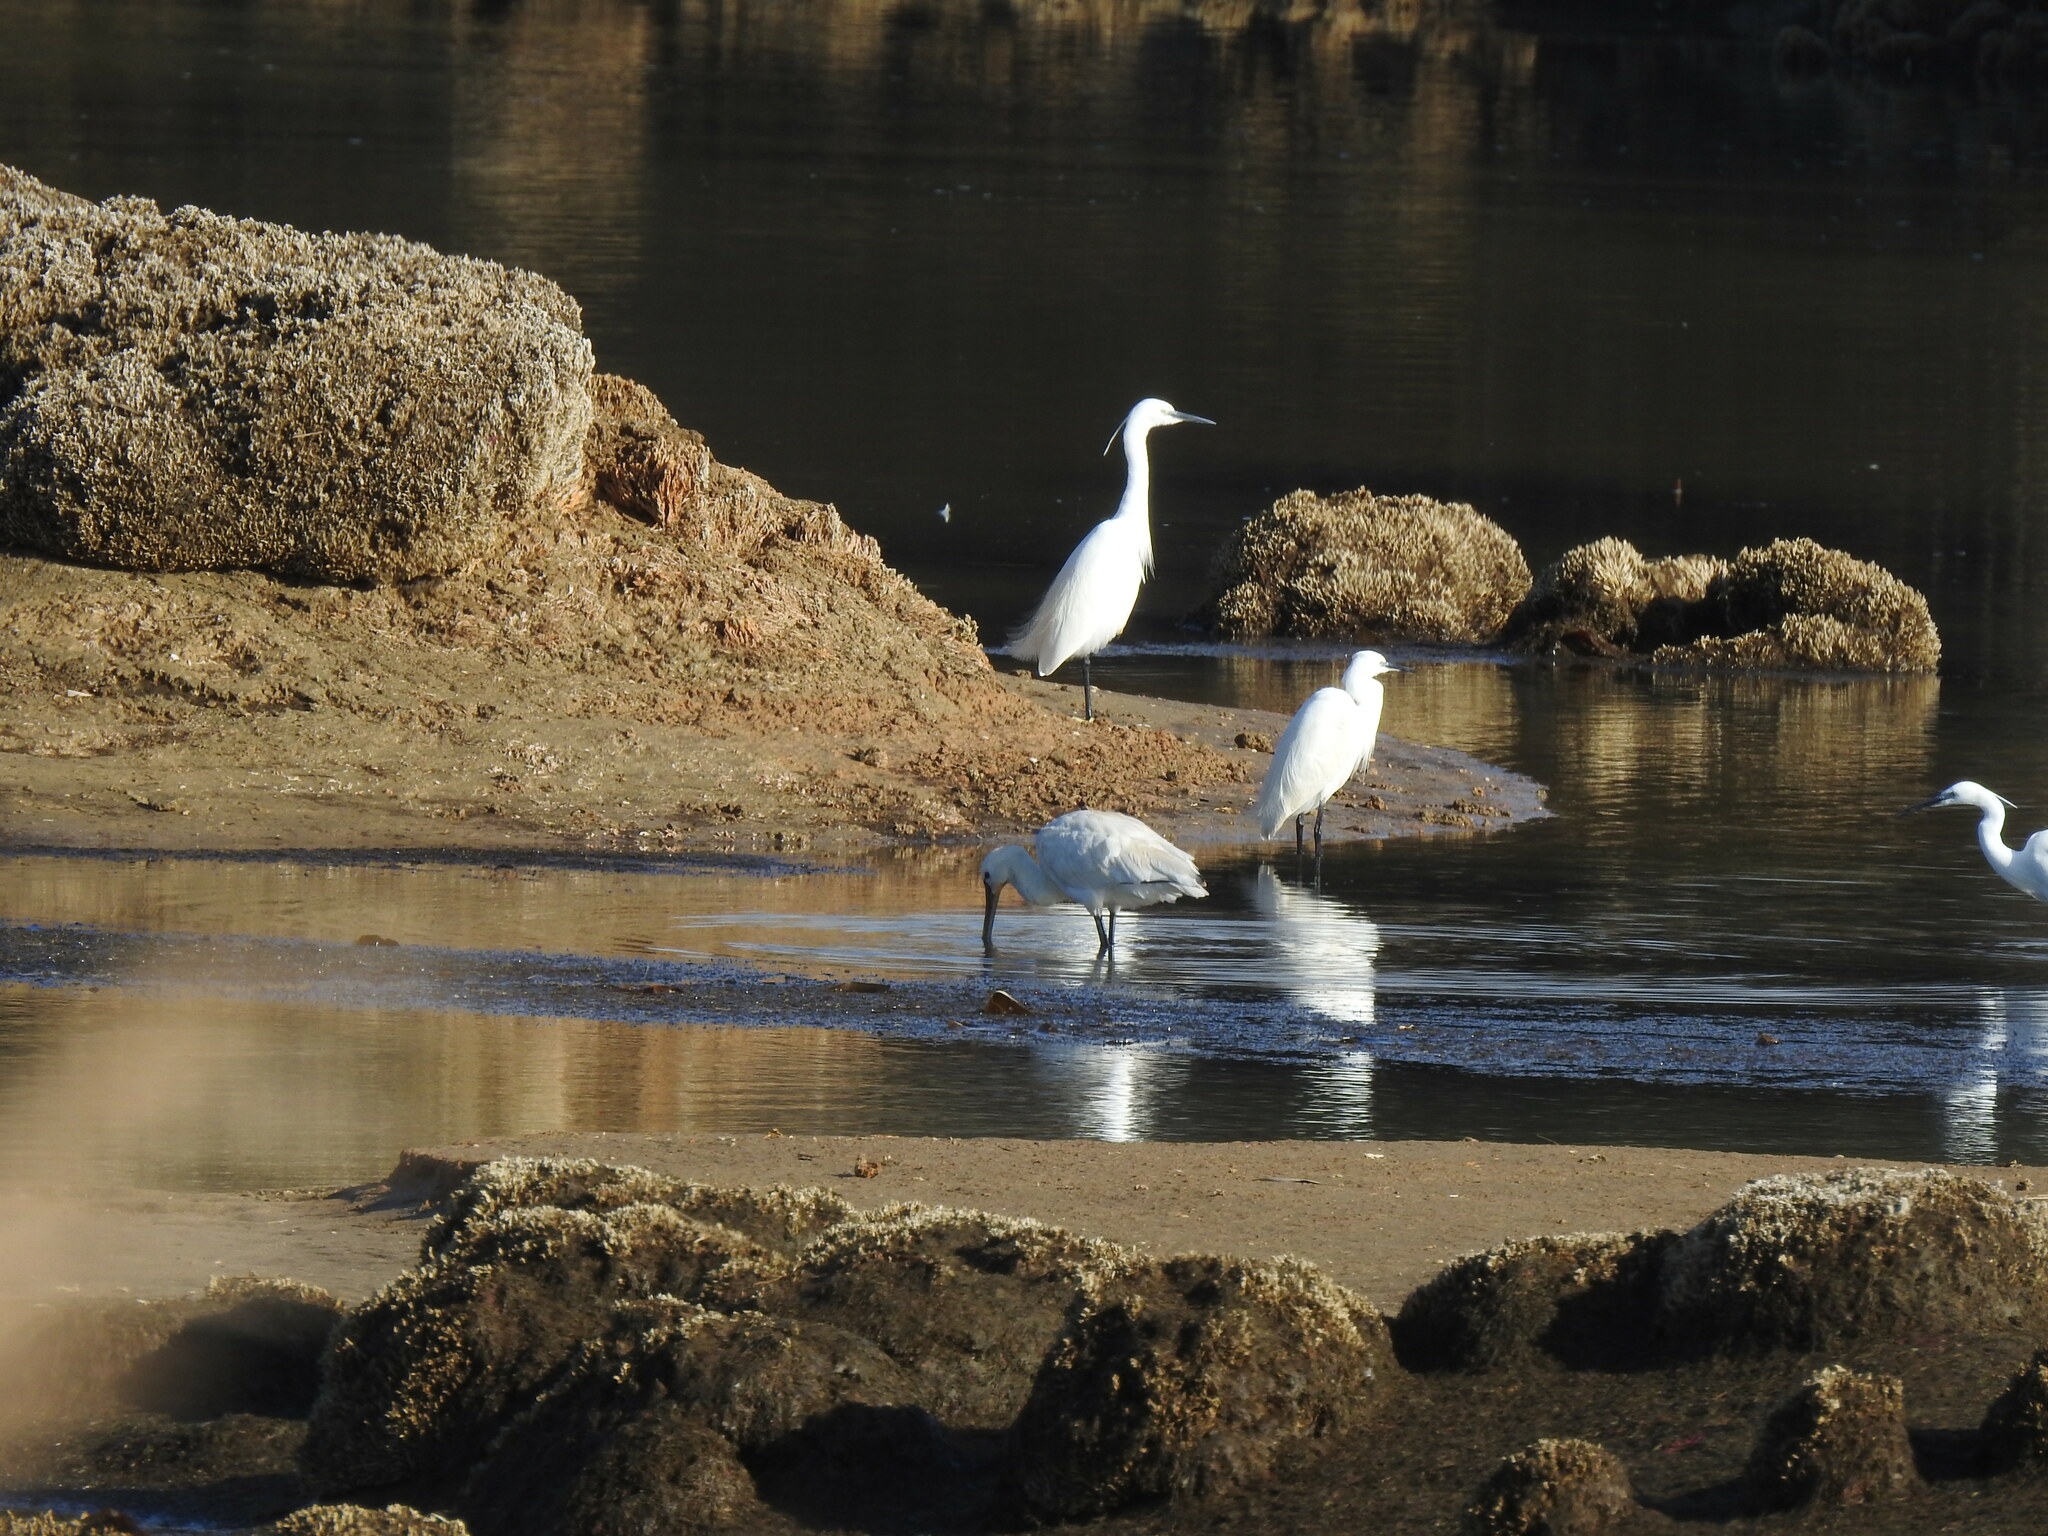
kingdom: Animalia
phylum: Chordata
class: Aves
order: Pelecaniformes
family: Threskiornithidae
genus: Platalea
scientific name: Platalea leucorodia
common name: Eurasian spoonbill
